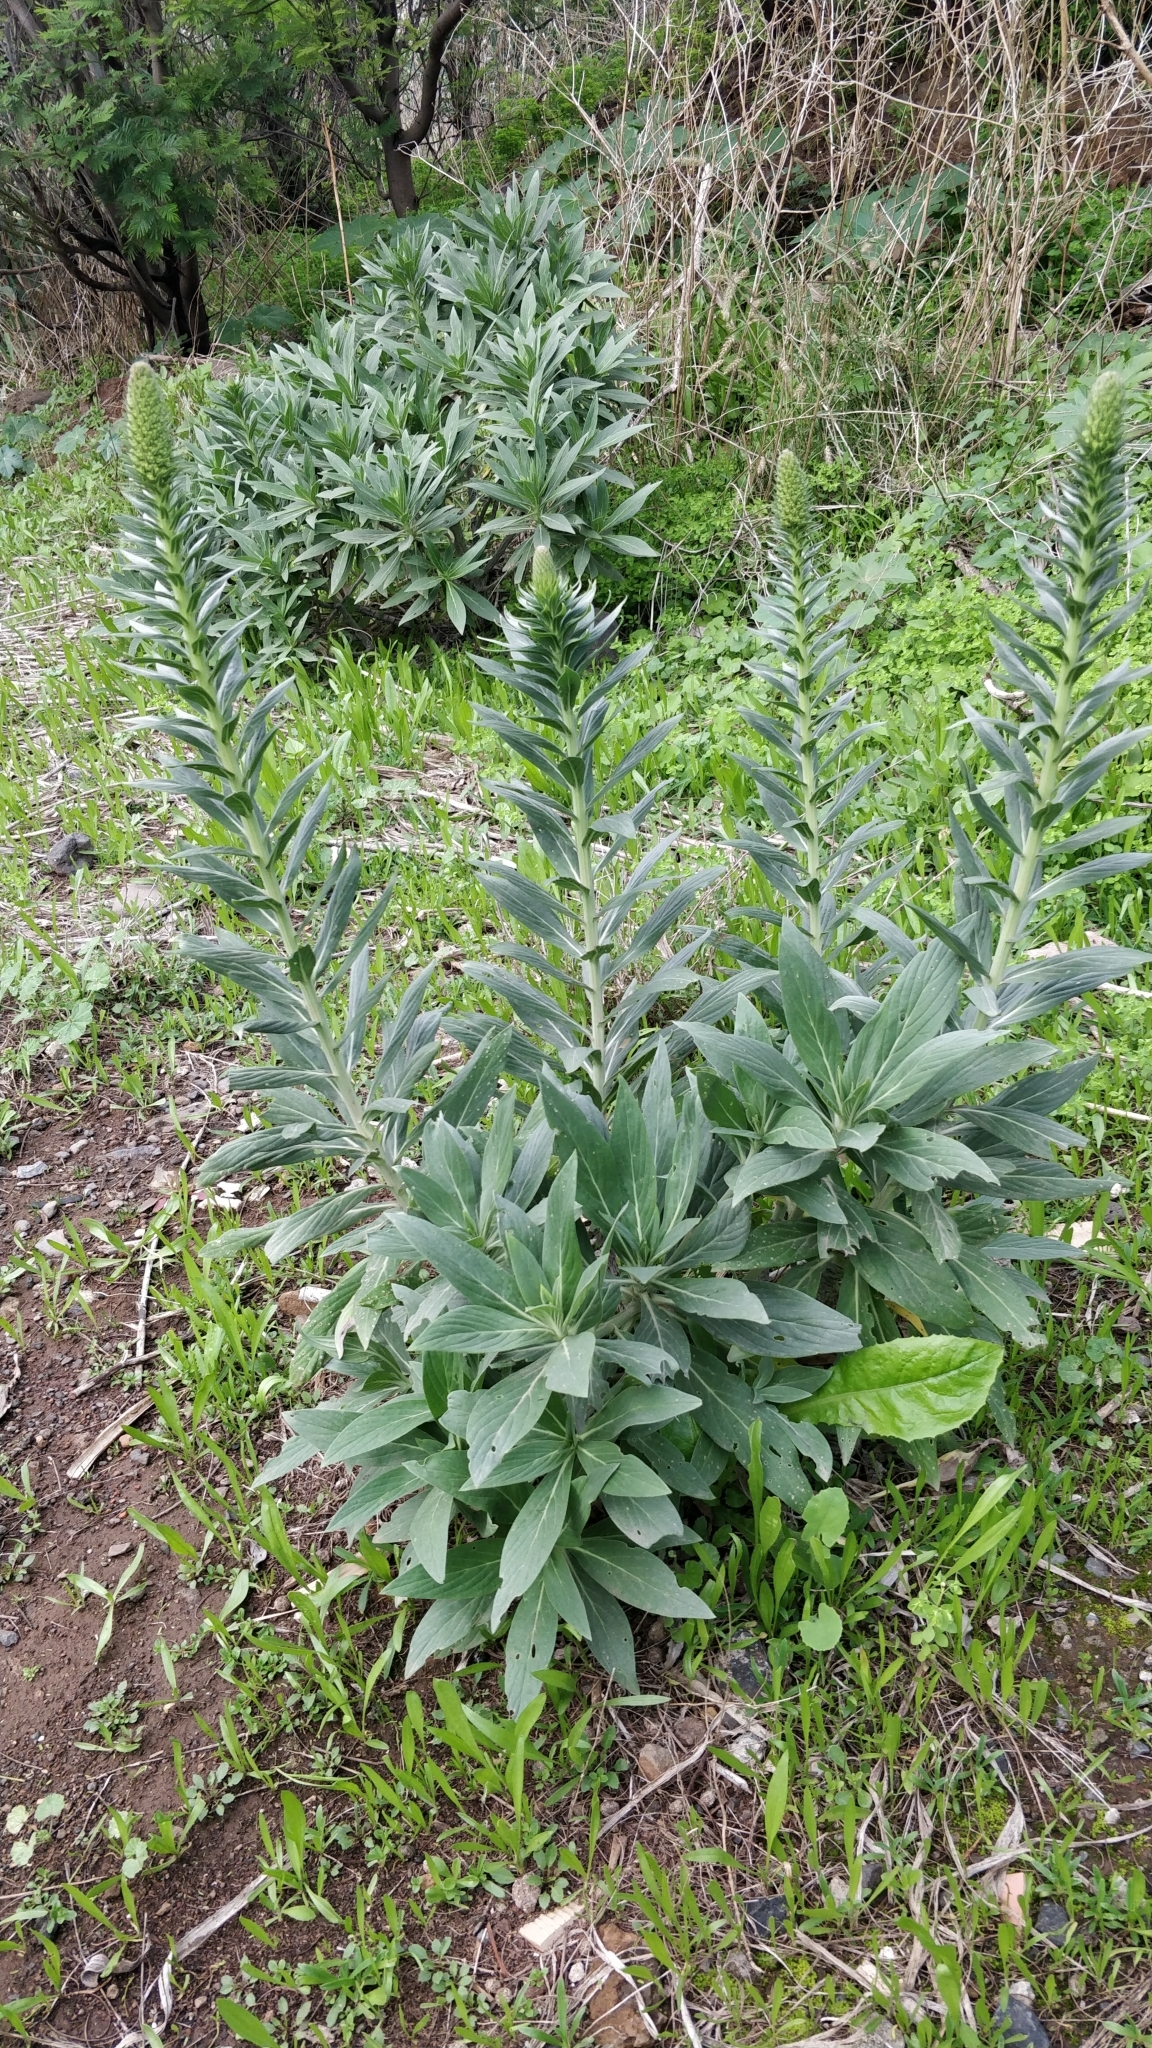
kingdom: Plantae
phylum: Tracheophyta
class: Magnoliopsida
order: Boraginales
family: Boraginaceae
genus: Echium
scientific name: Echium nervosum
